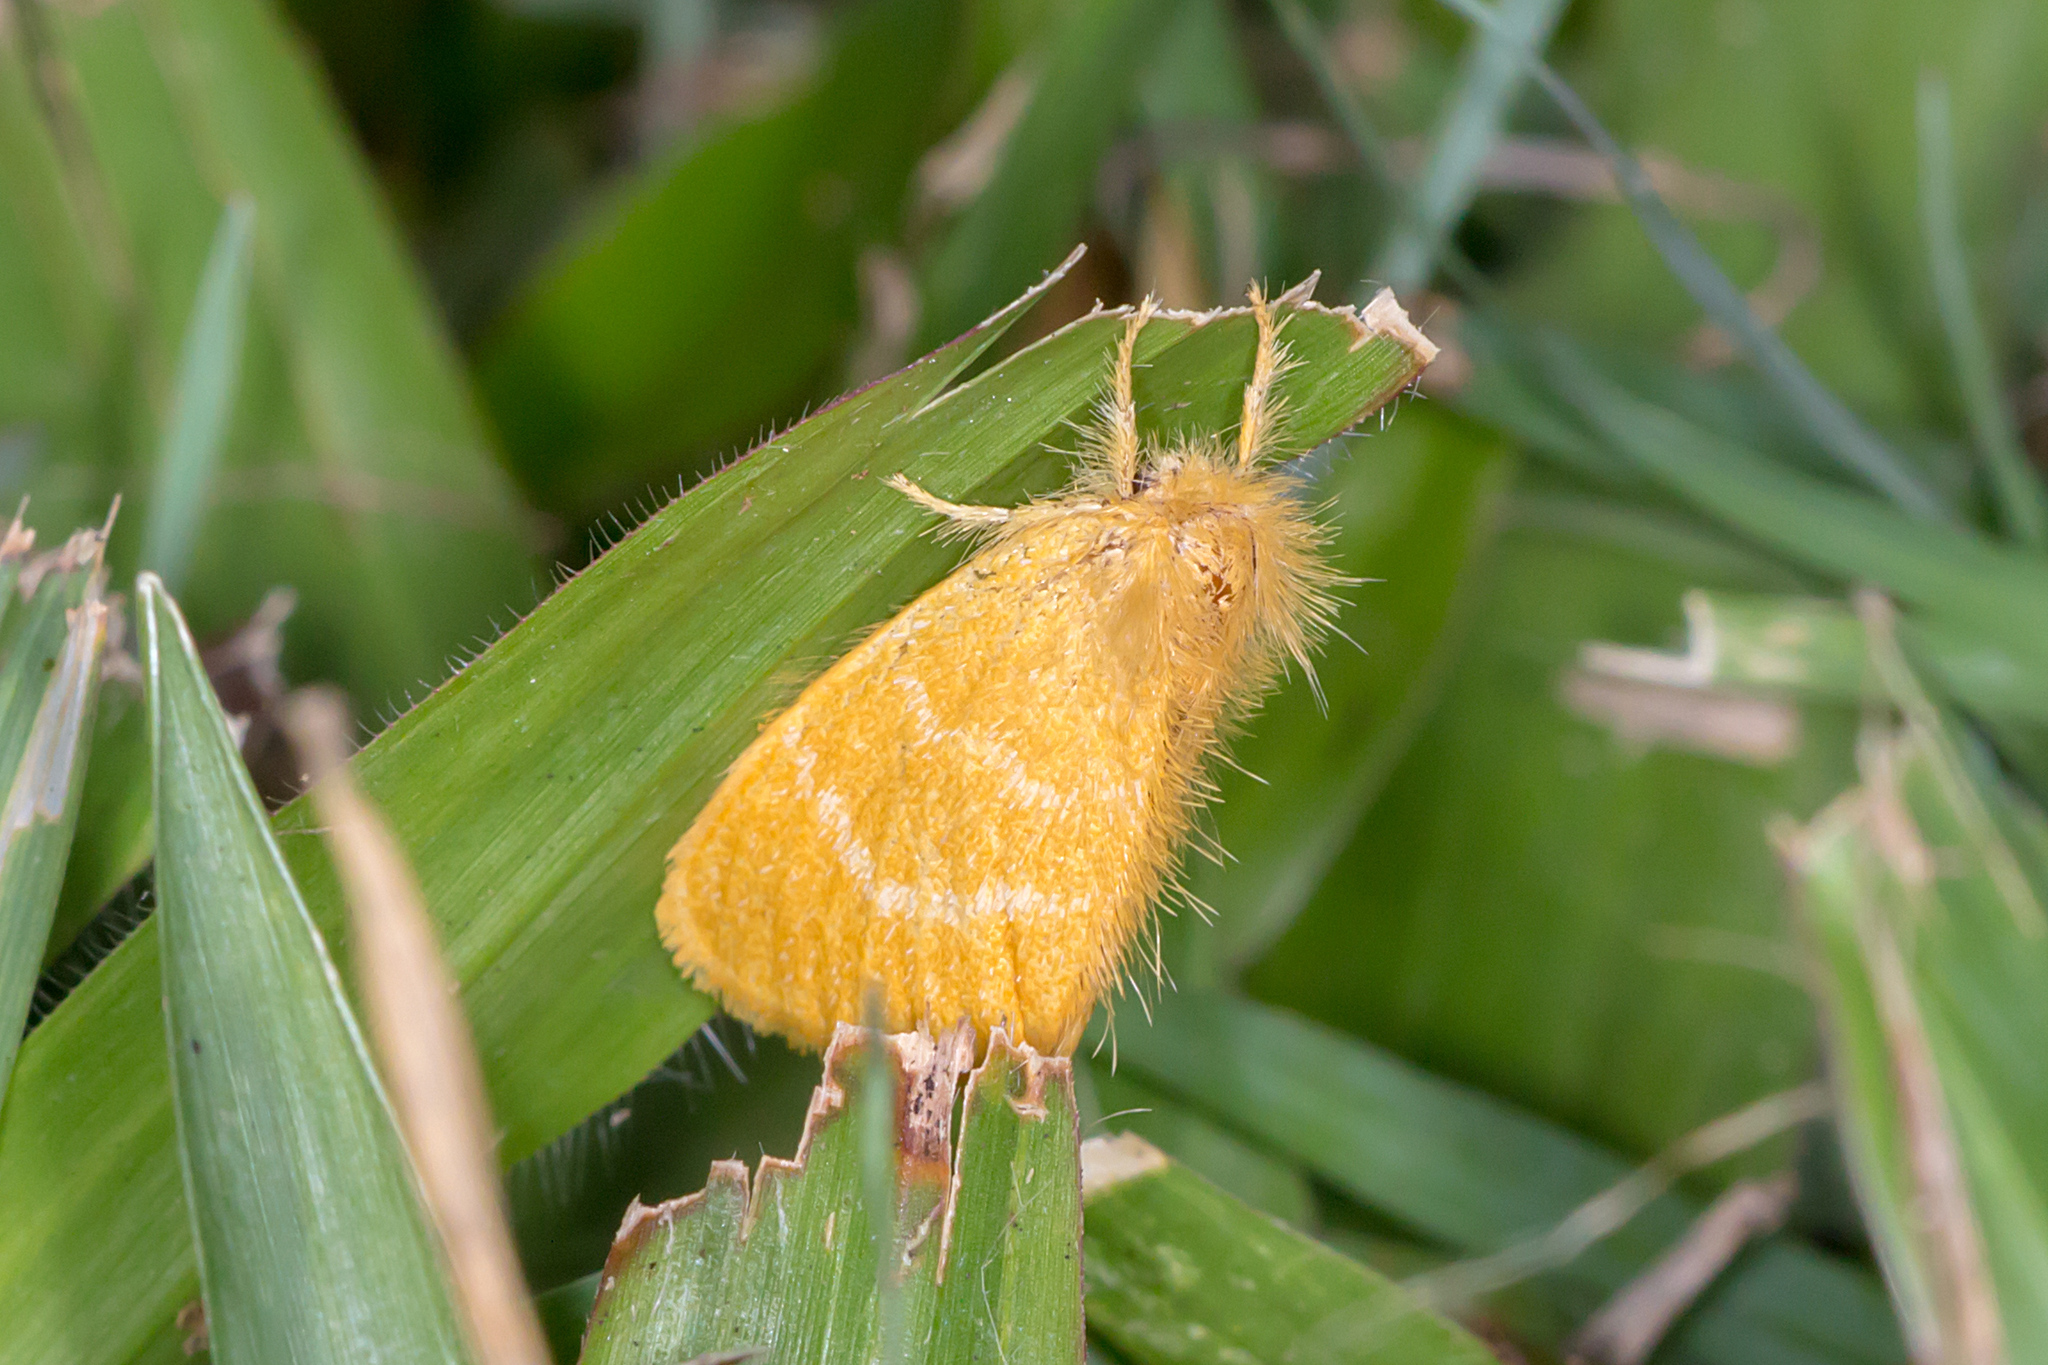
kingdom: Animalia
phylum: Arthropoda
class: Insecta
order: Lepidoptera
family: Erebidae
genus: Euproctis
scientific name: Euproctis lutea
